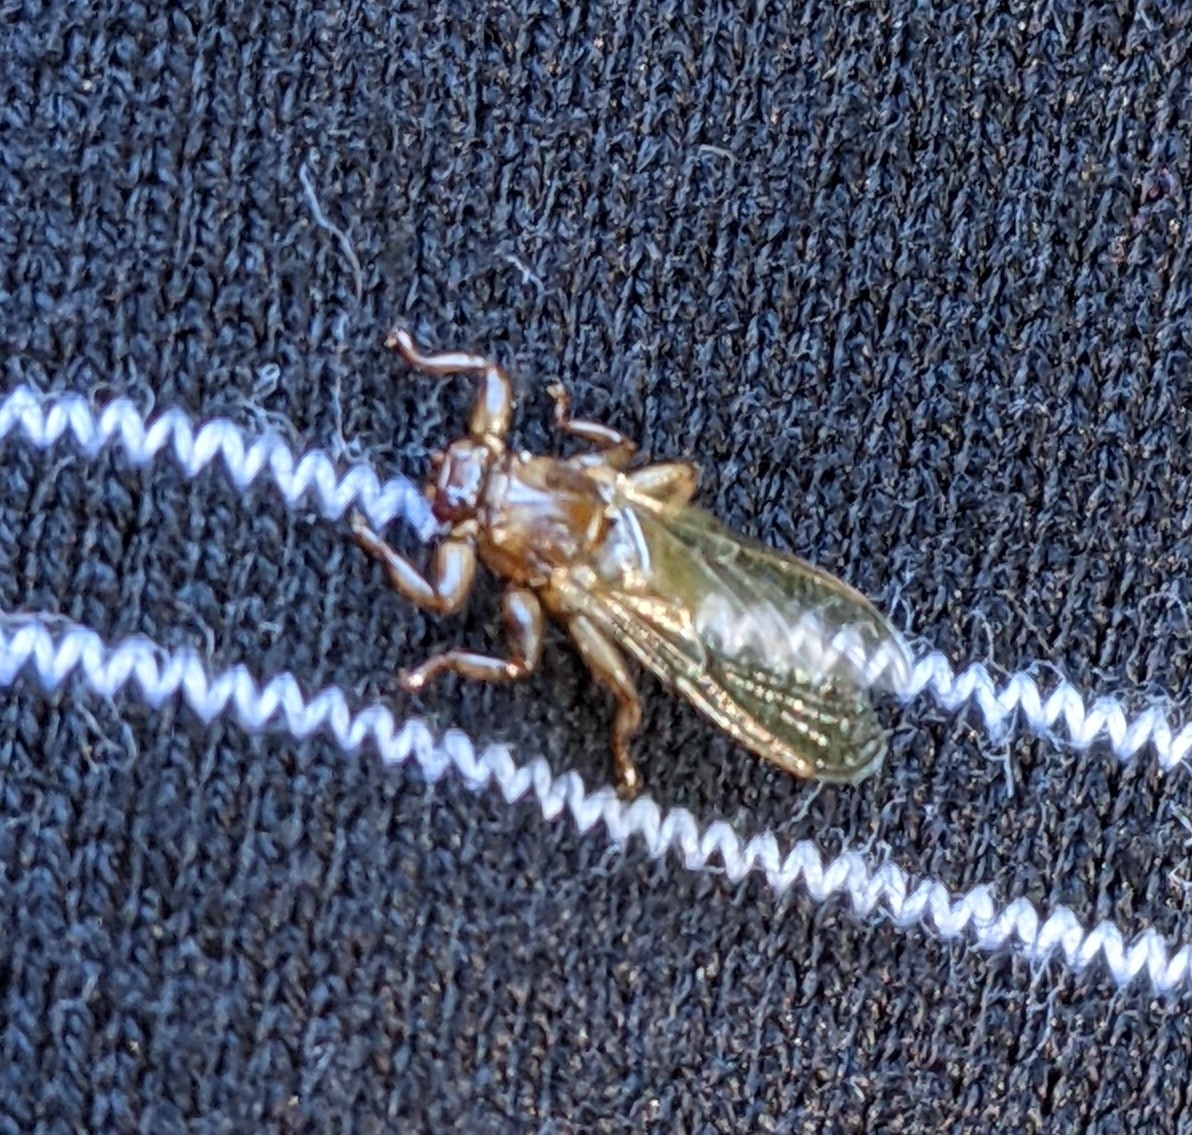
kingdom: Animalia
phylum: Arthropoda
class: Insecta
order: Diptera
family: Hippoboscidae
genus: Lipoptena
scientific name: Lipoptena cervi
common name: Deer ked
